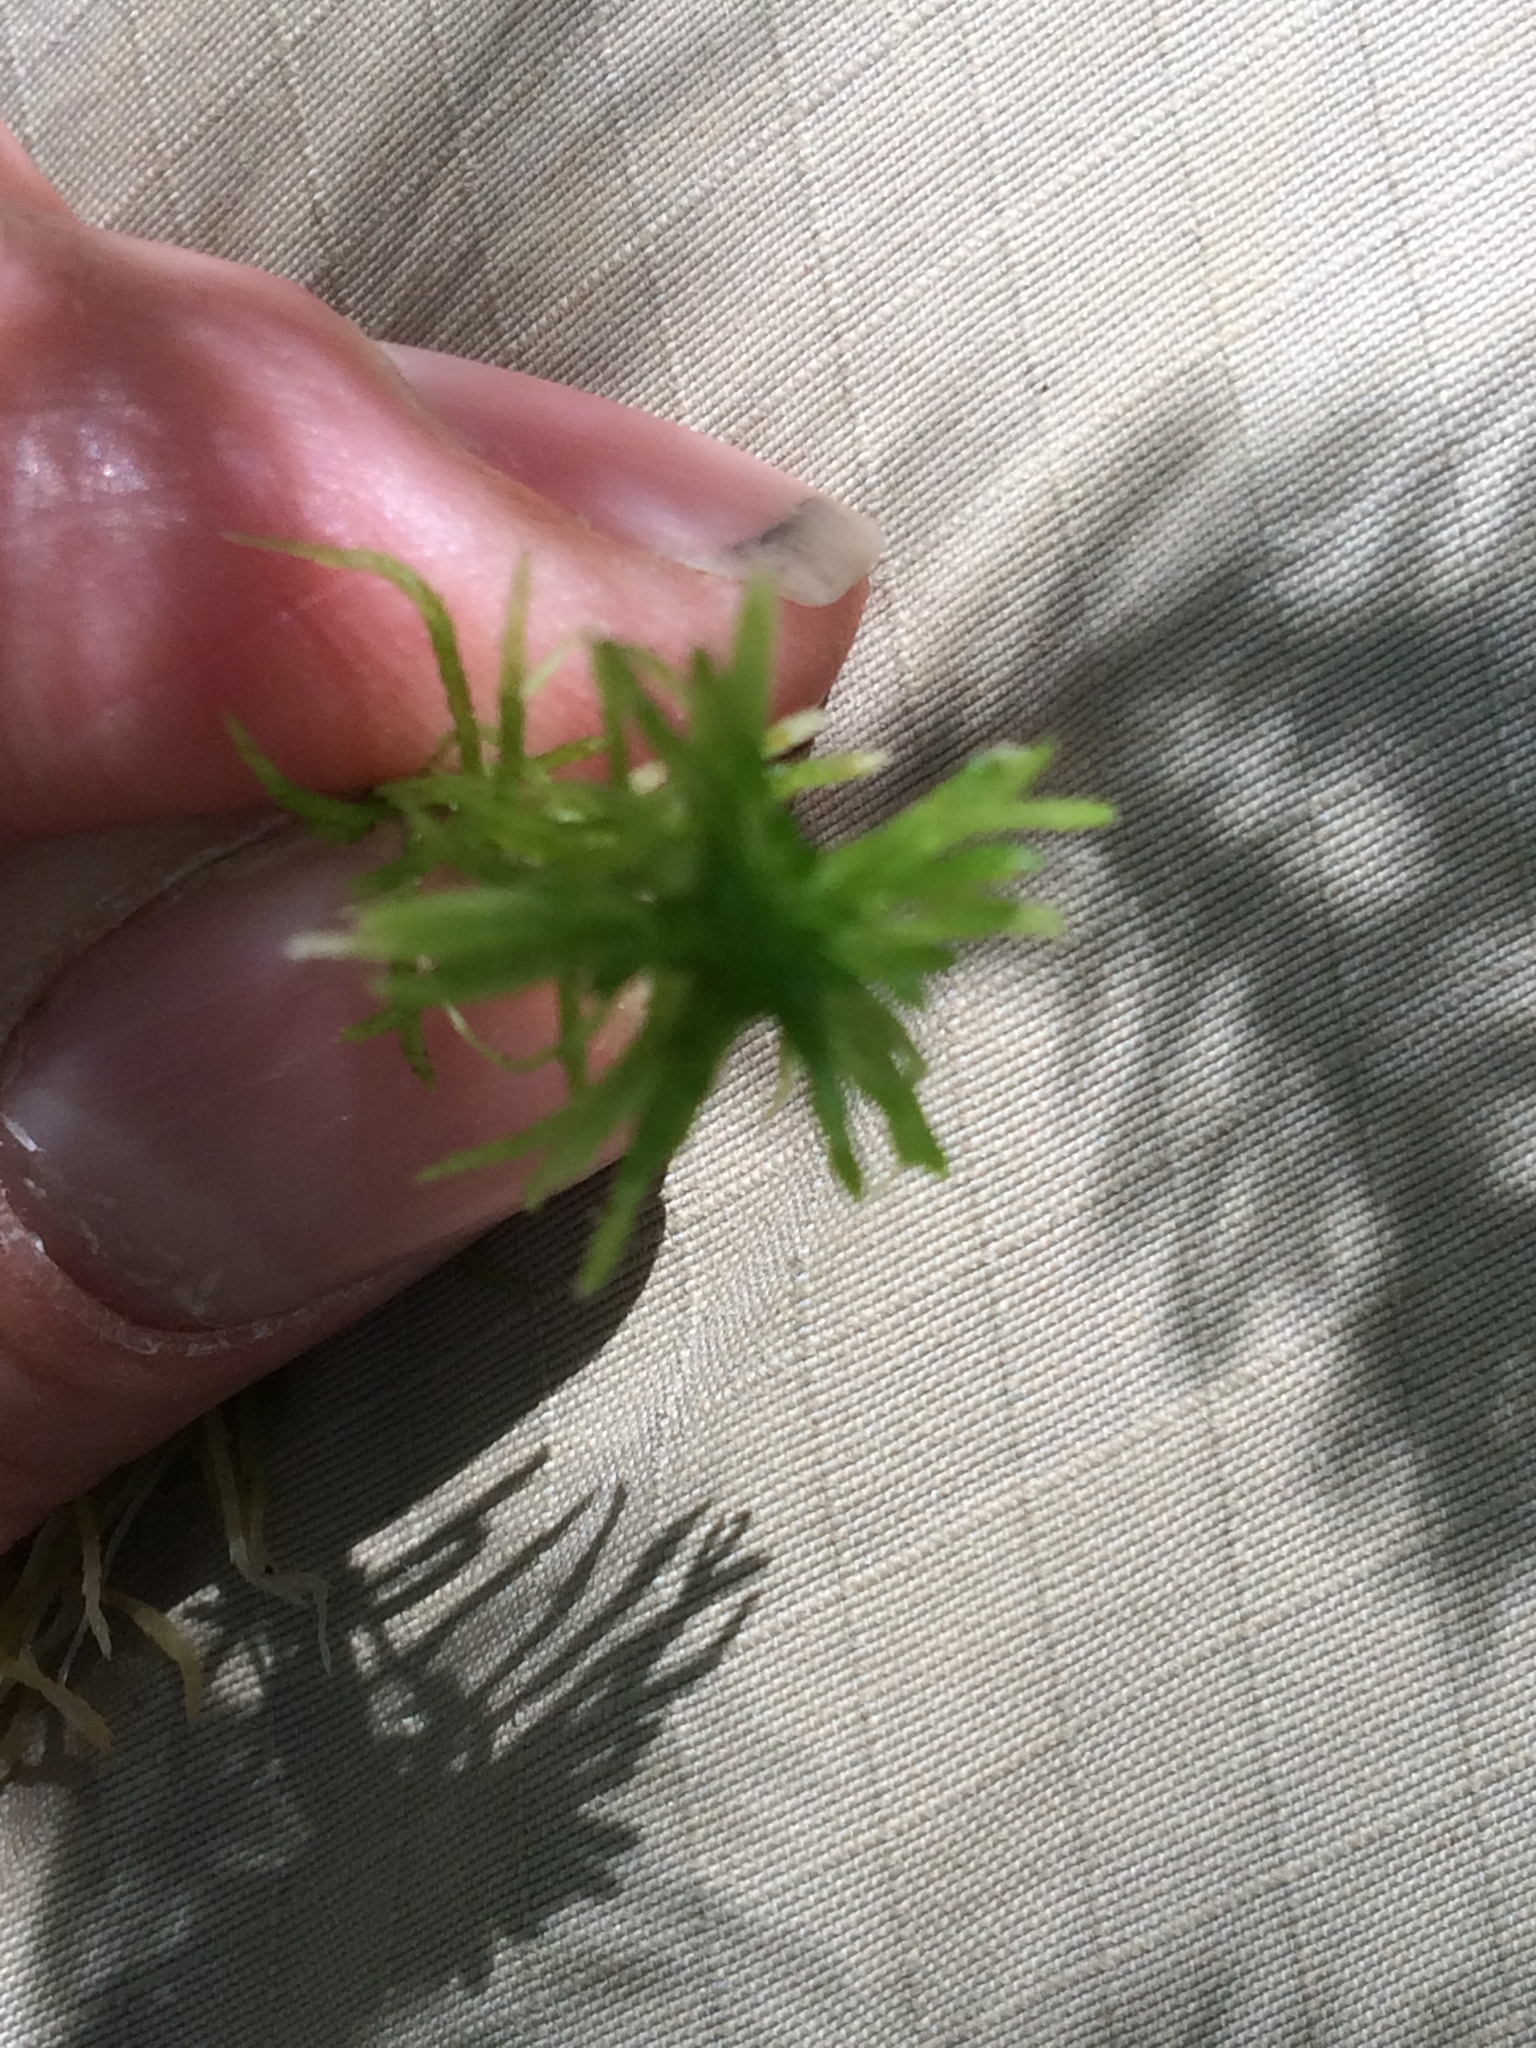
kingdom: Plantae
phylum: Bryophyta
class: Sphagnopsida
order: Sphagnales
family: Sphagnaceae
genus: Sphagnum
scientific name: Sphagnum girgensohnii
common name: Girgensohn's peat moss
